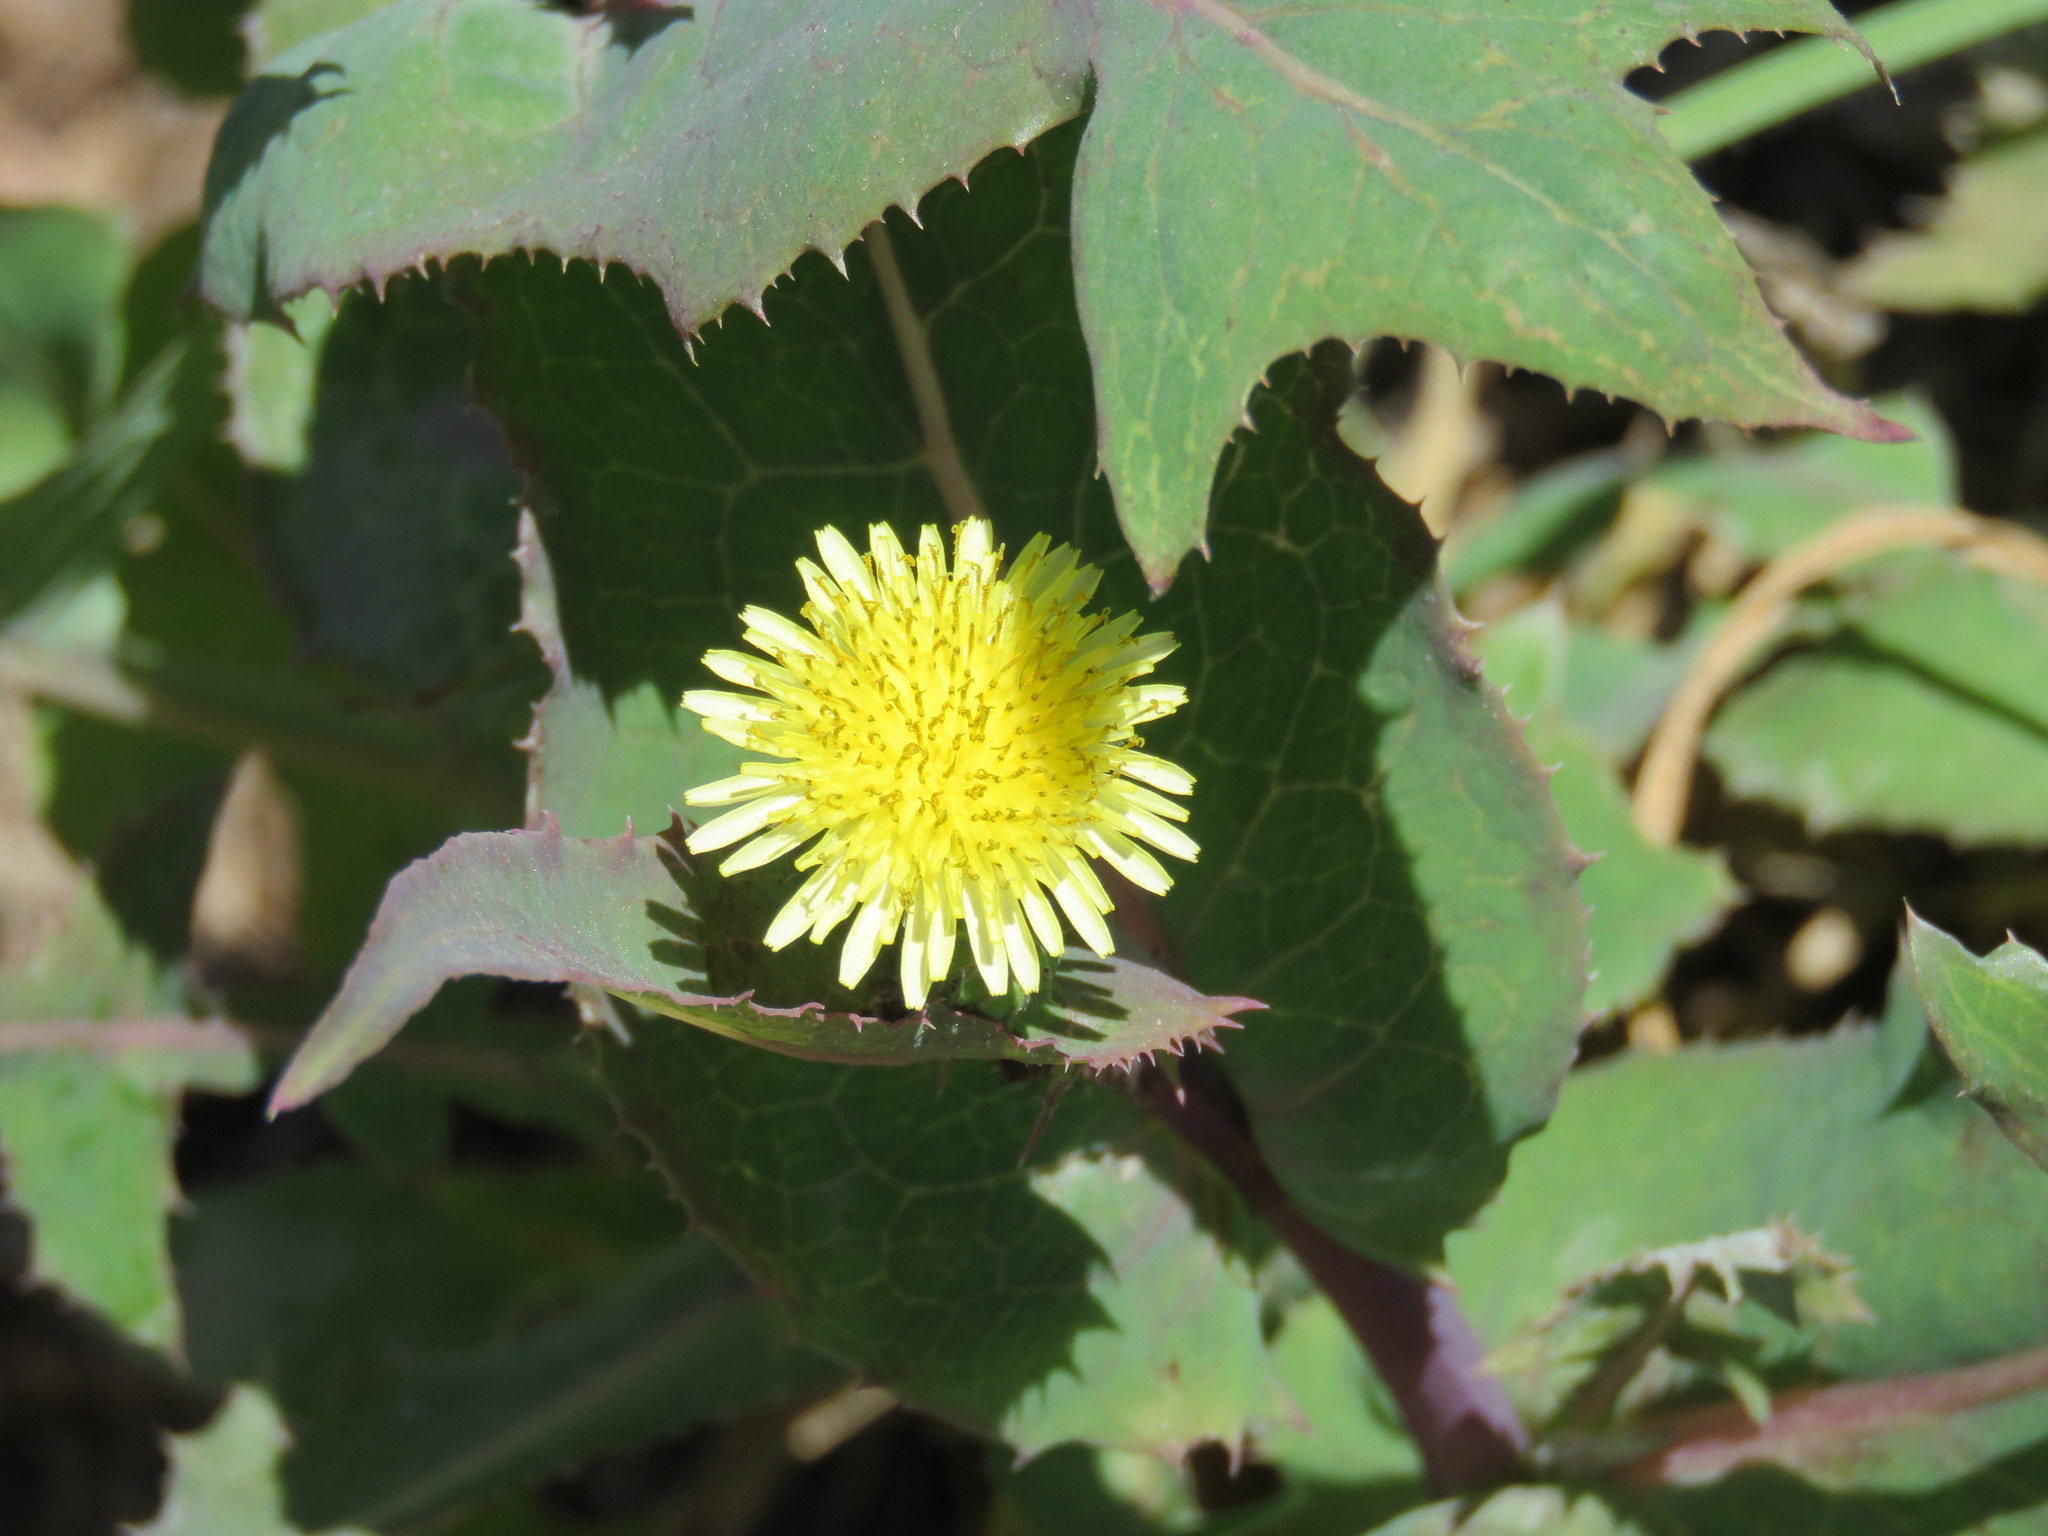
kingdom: Plantae
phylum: Tracheophyta
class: Magnoliopsida
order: Asterales
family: Asteraceae
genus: Sonchus
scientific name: Sonchus oleraceus
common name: Common sowthistle
